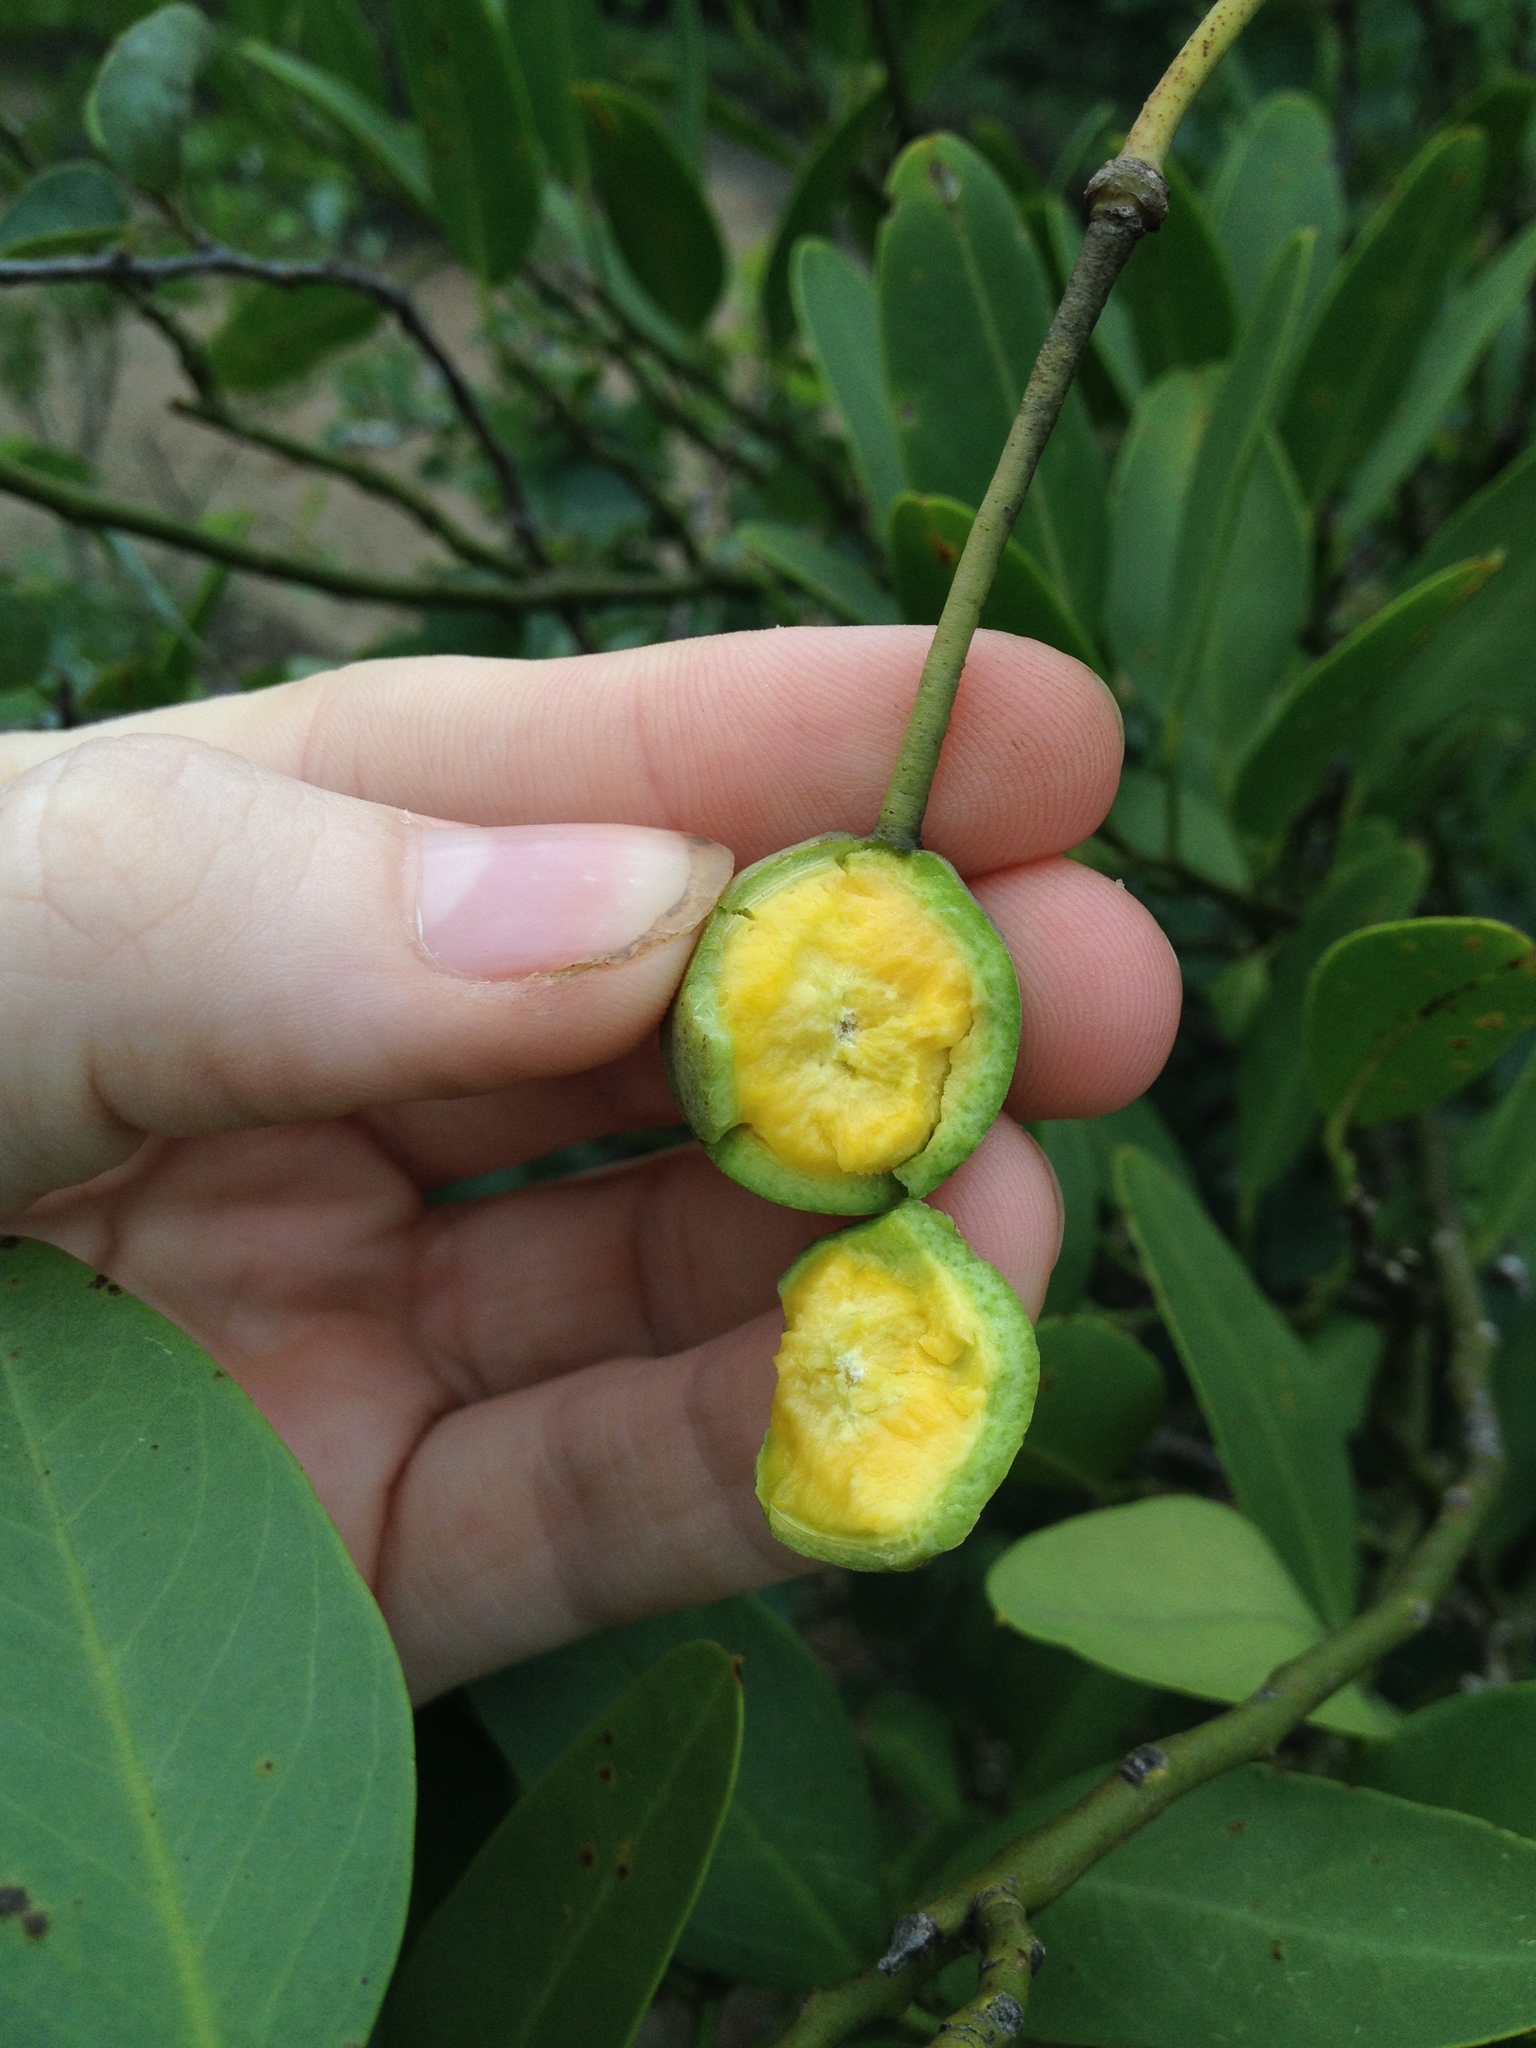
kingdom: Plantae
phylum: Tracheophyta
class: Magnoliopsida
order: Brassicales
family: Capparaceae
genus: Anisocapparis
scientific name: Anisocapparis speciosa
